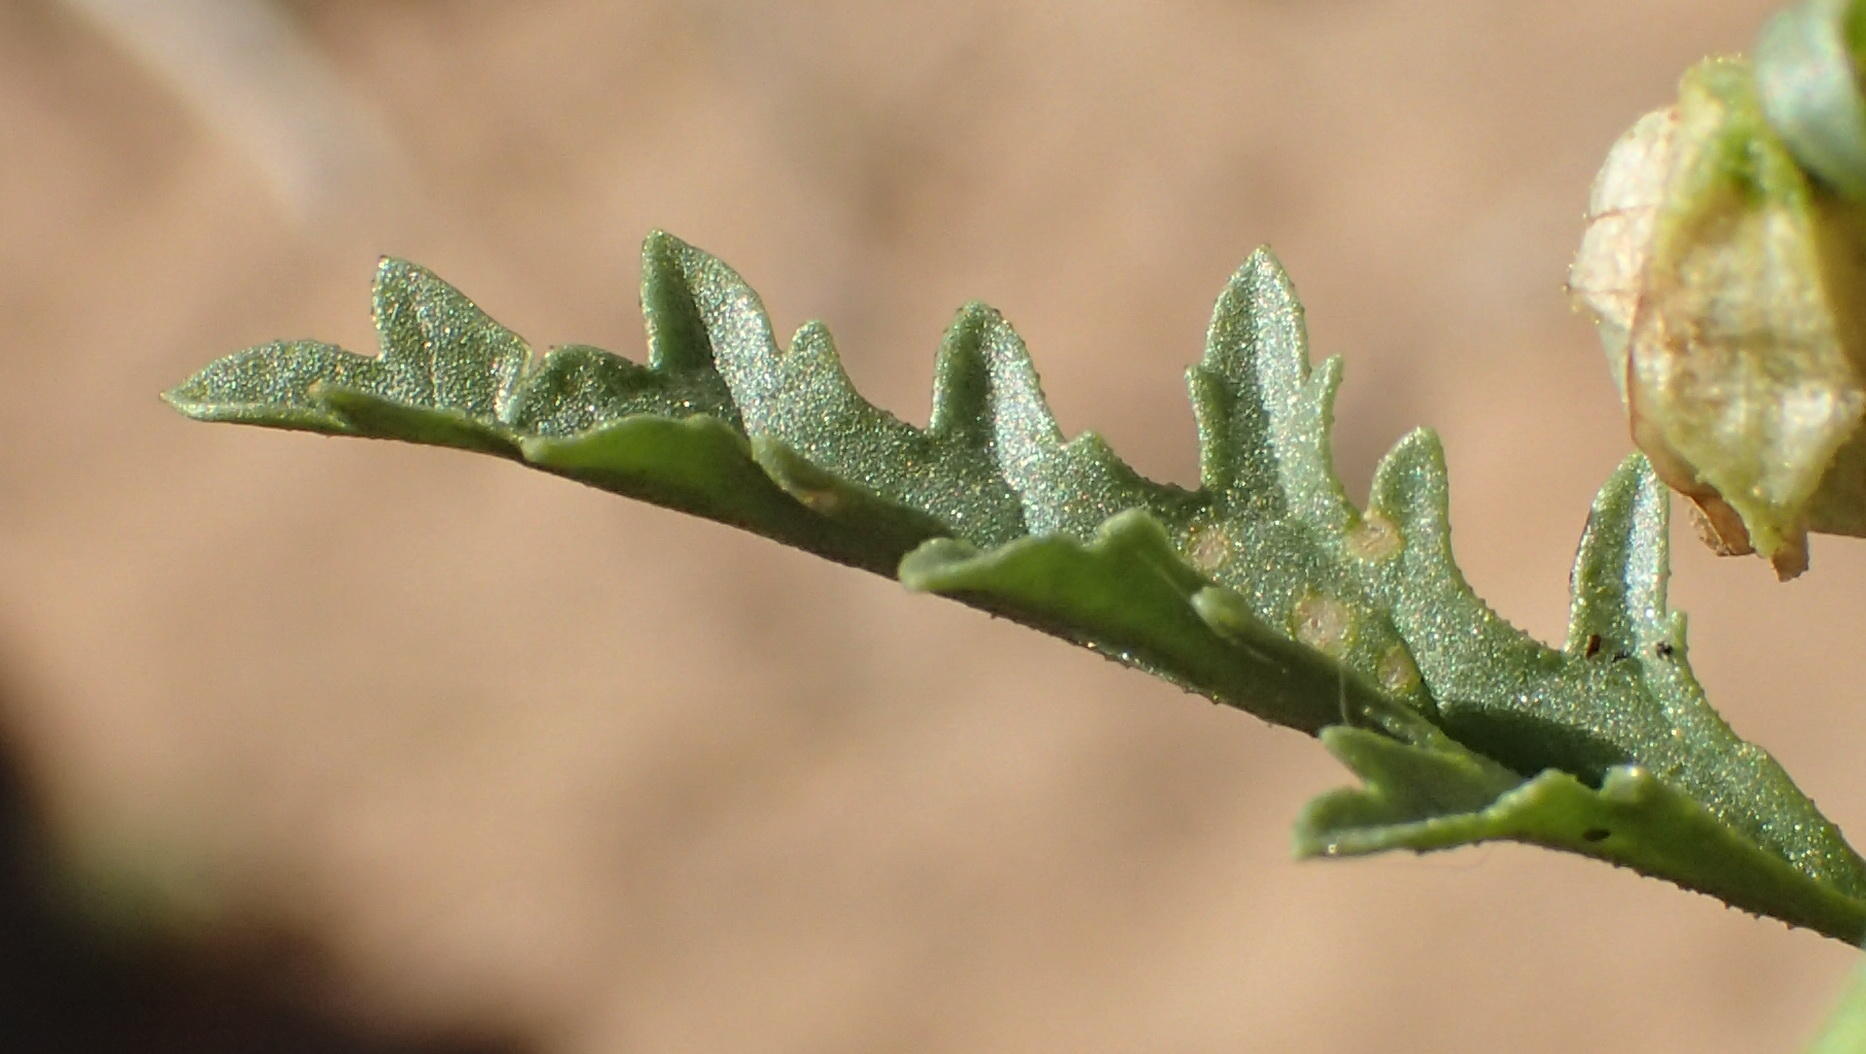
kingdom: Plantae
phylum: Tracheophyta
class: Magnoliopsida
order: Malvales
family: Malvaceae
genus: Hermannia
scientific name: Hermannia leucantha
